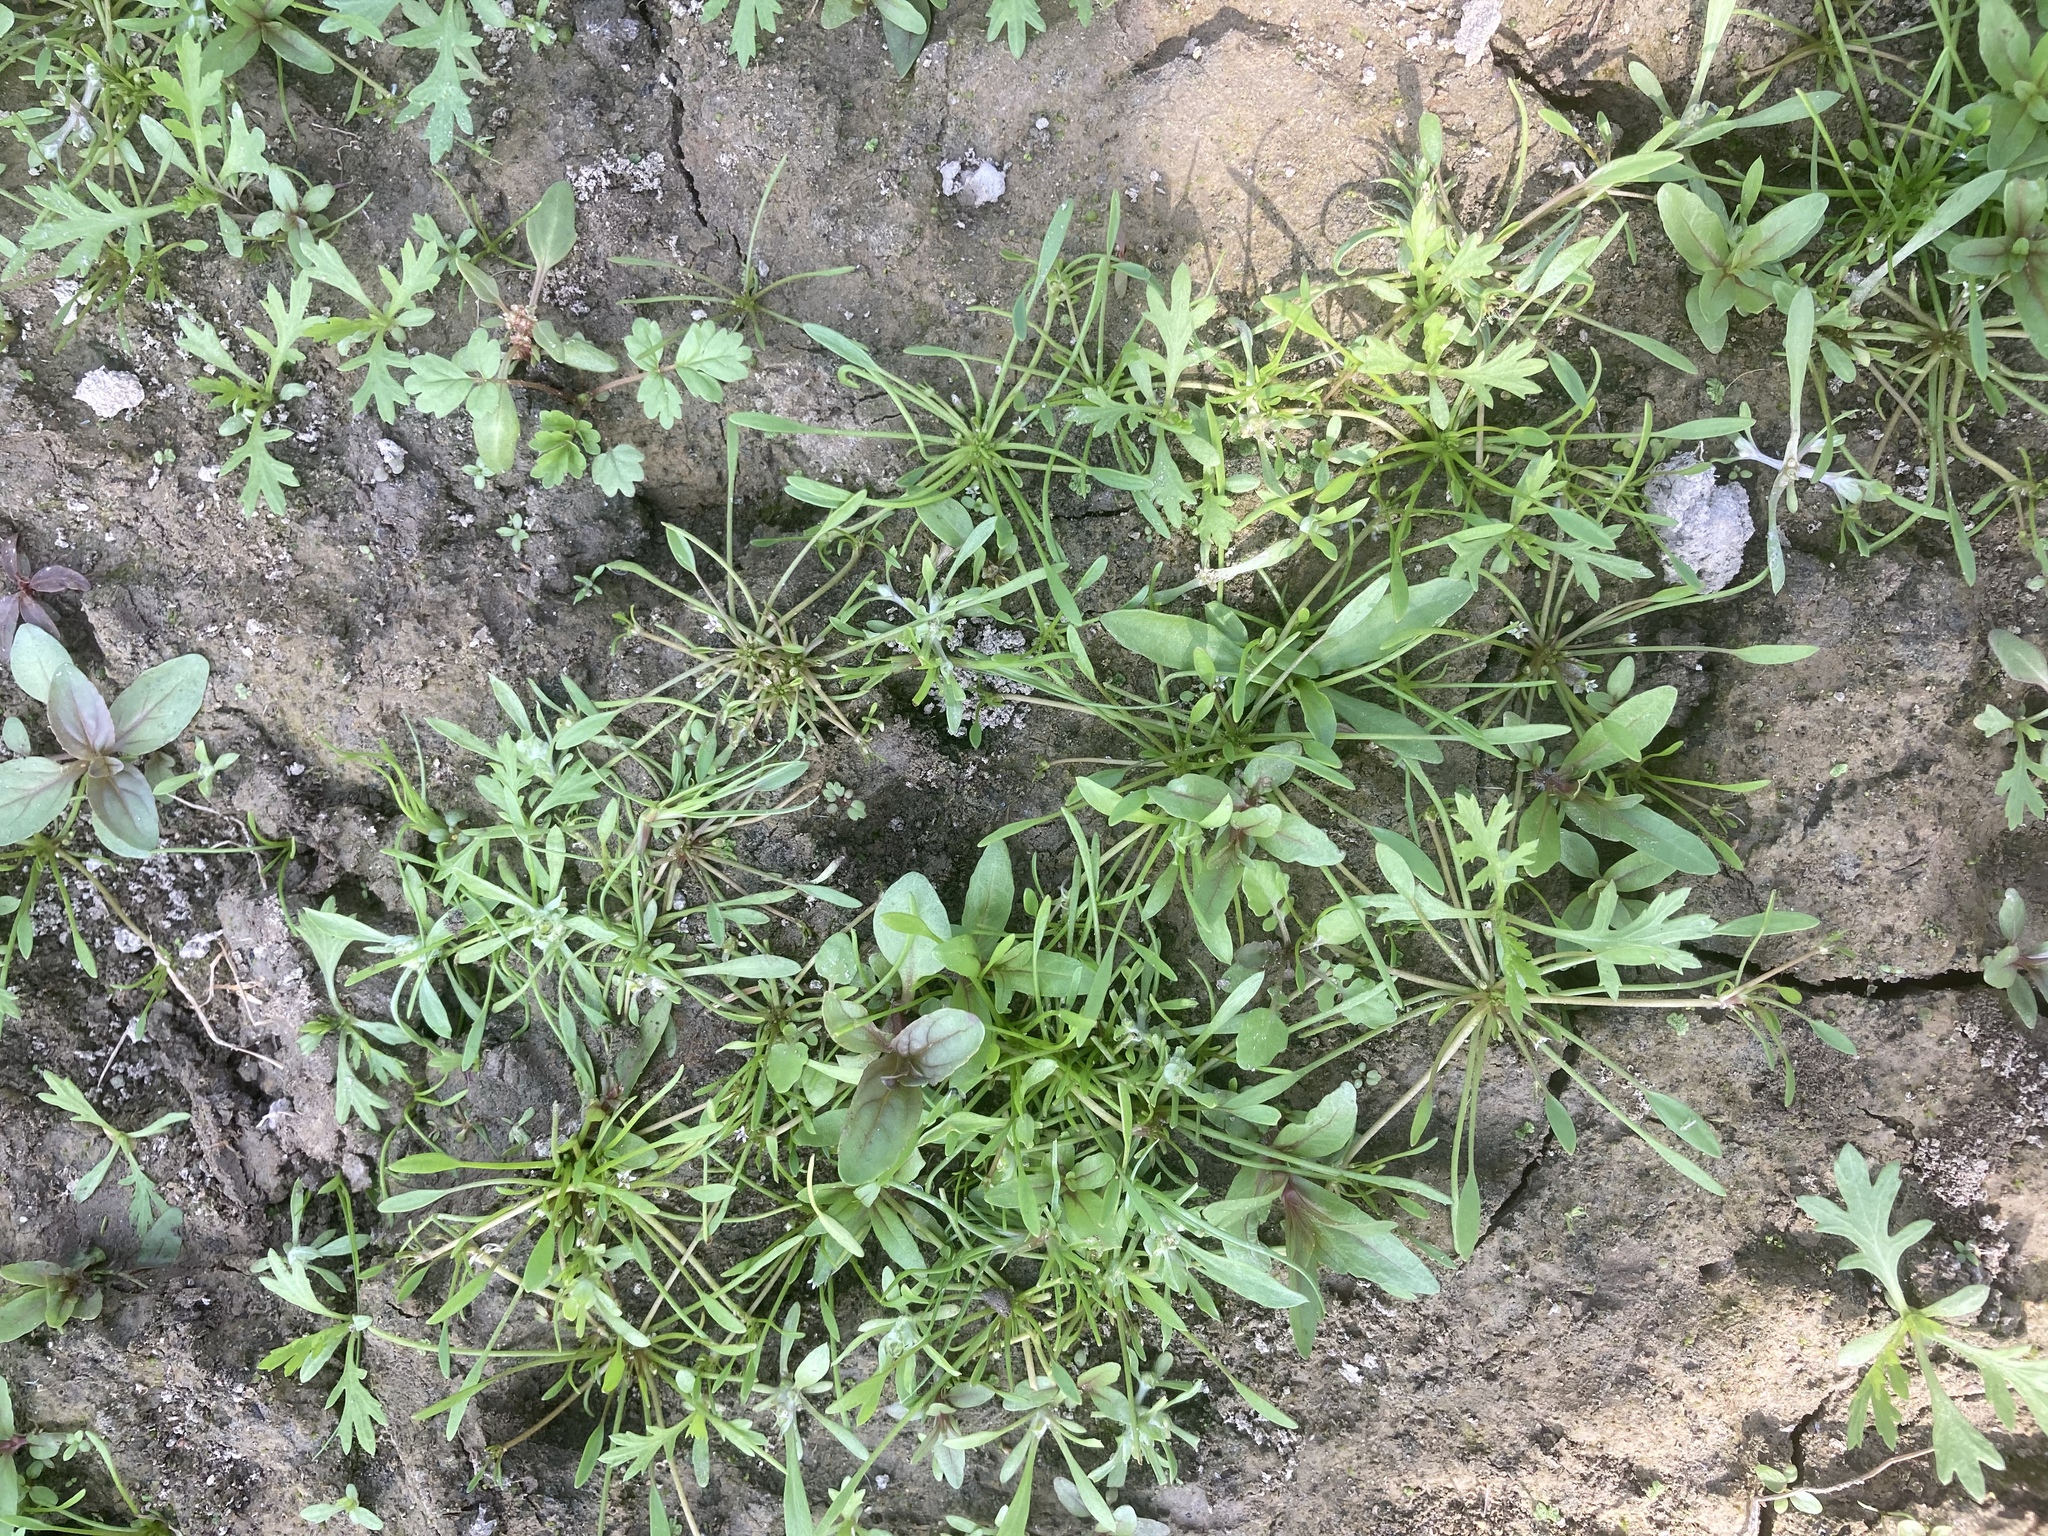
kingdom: Plantae
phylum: Tracheophyta
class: Magnoliopsida
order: Lamiales
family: Scrophulariaceae
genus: Limosella
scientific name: Limosella aquatica
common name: Mudwort
